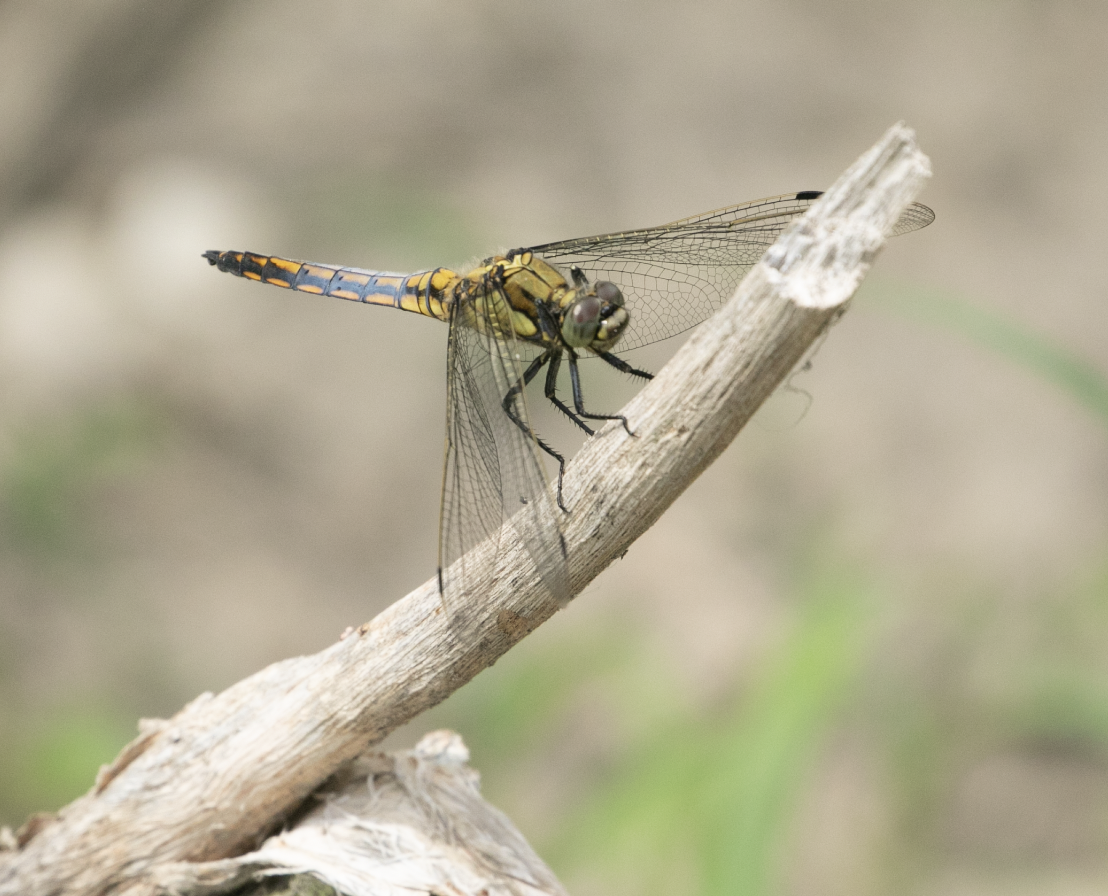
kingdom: Animalia
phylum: Arthropoda
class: Insecta
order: Odonata
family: Libellulidae
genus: Orthetrum
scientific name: Orthetrum cancellatum
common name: Black-tailed skimmer
